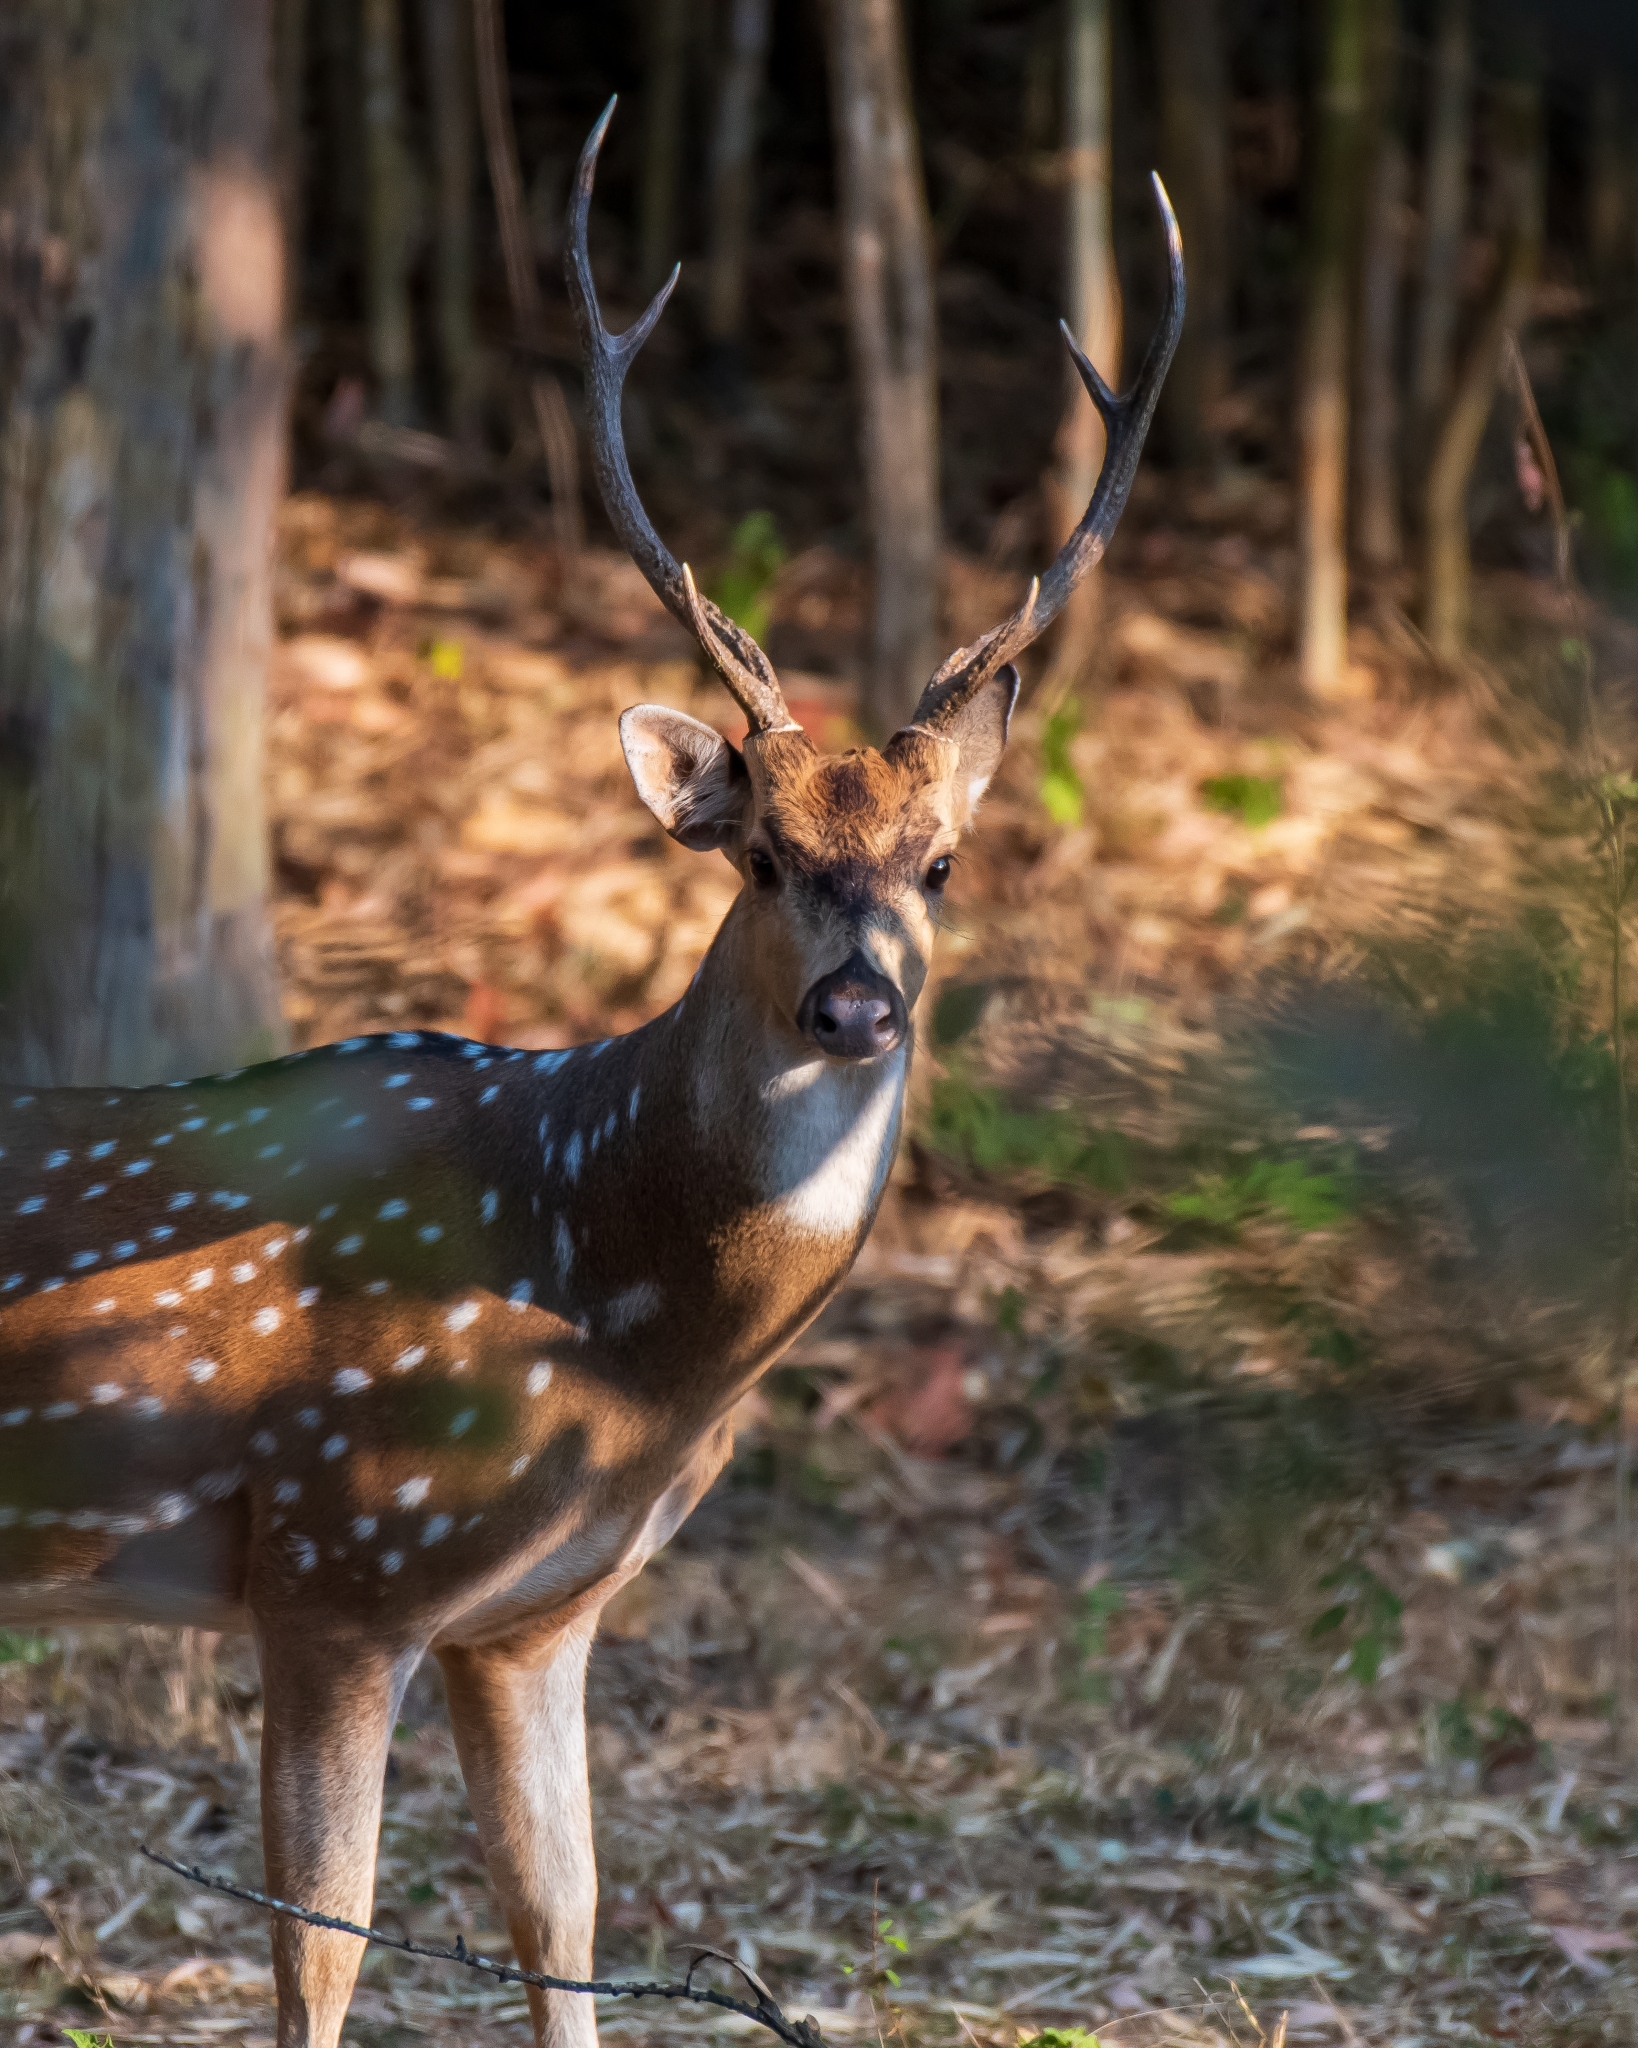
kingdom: Animalia
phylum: Chordata
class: Mammalia
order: Artiodactyla
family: Cervidae
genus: Axis
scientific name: Axis axis
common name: Chital
